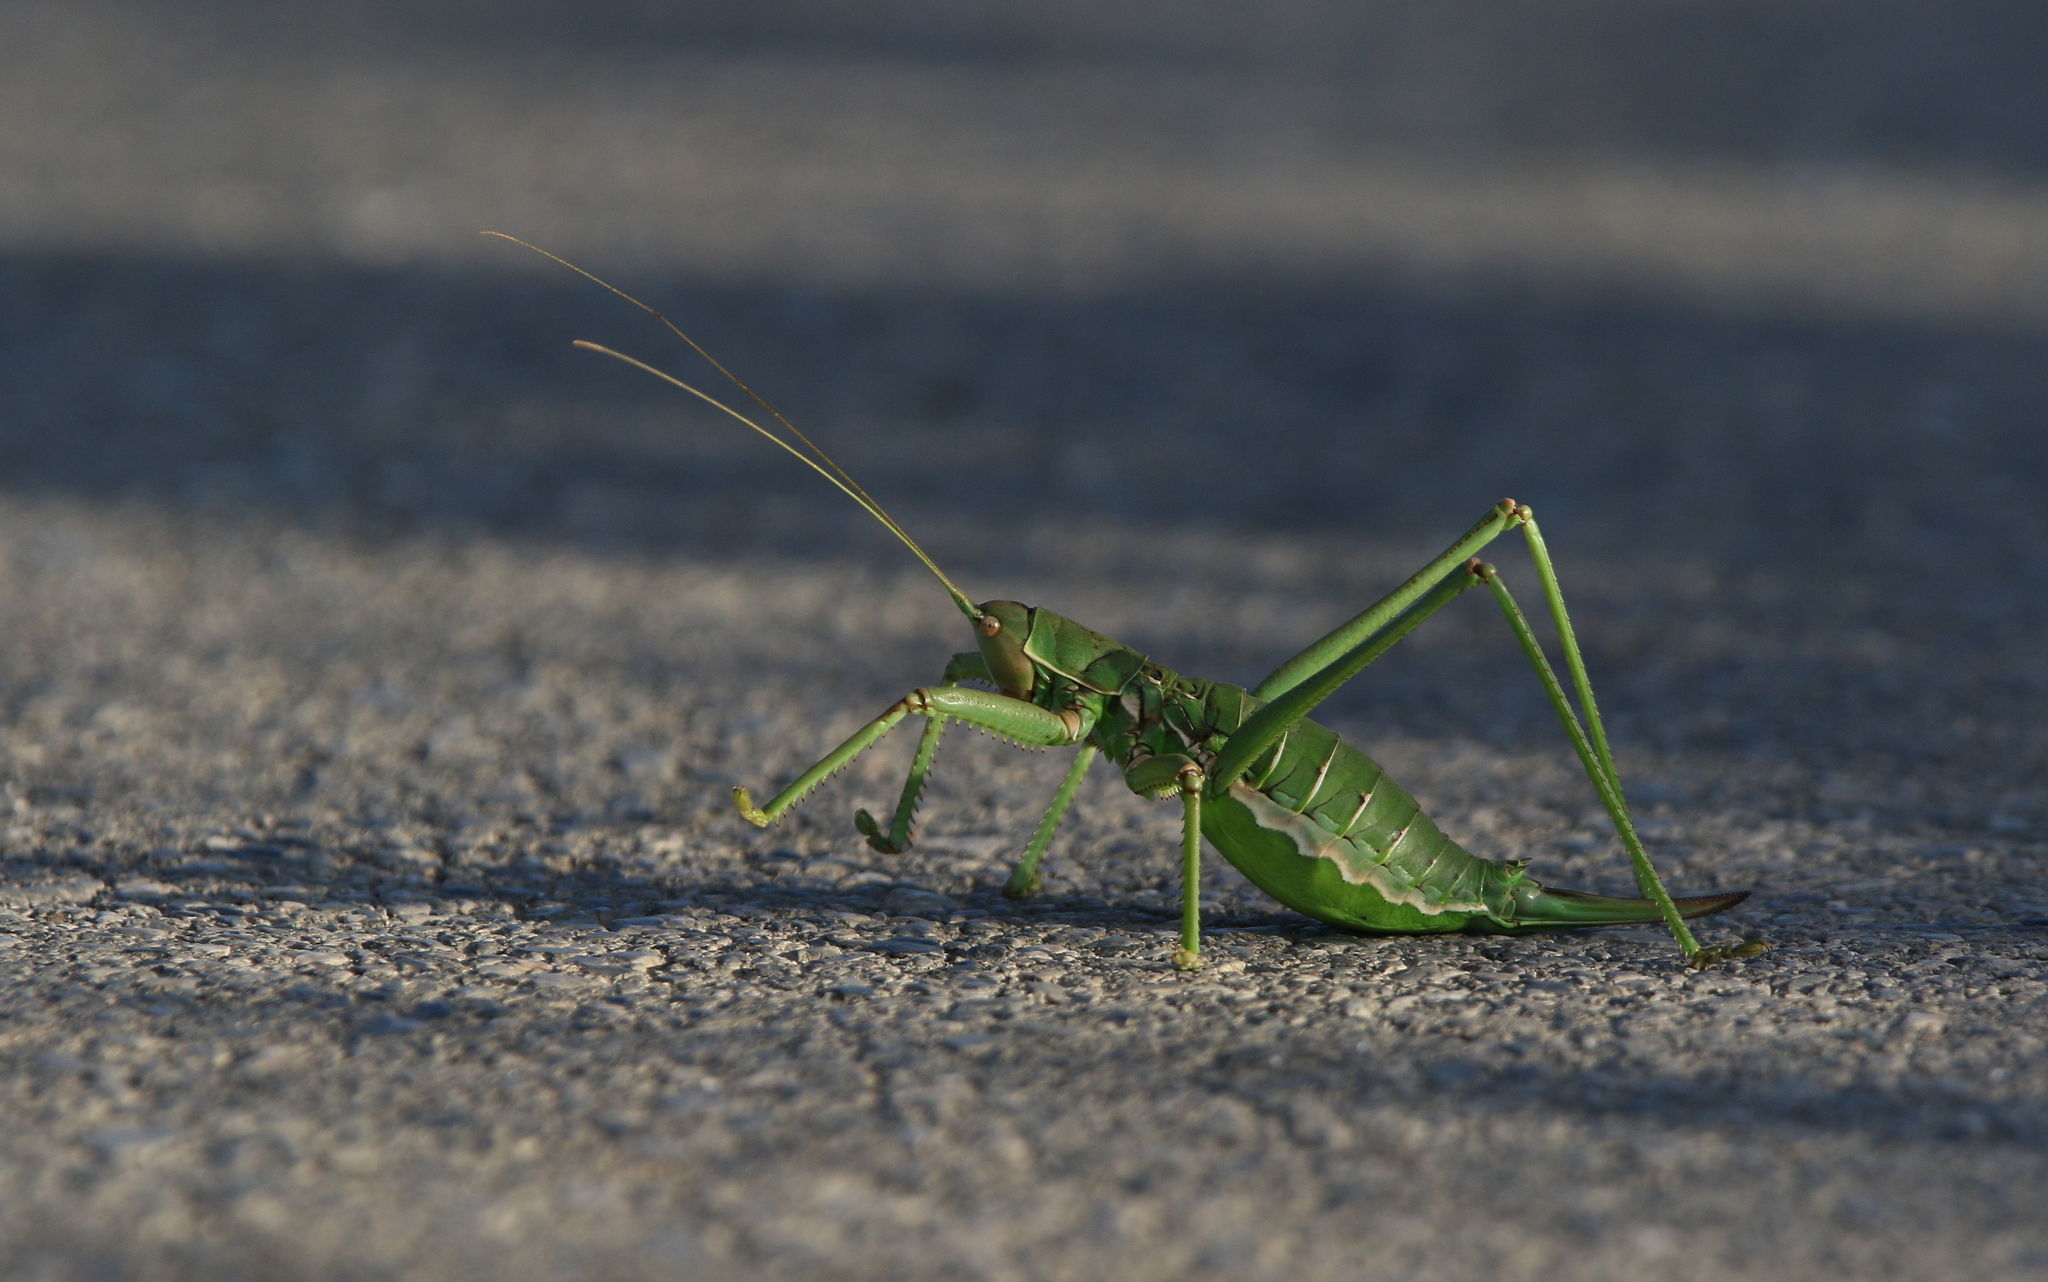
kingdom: Animalia
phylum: Arthropoda
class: Insecta
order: Orthoptera
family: Tettigoniidae
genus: Saga
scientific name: Saga hellenica
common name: Greek predatory bush-cricket
